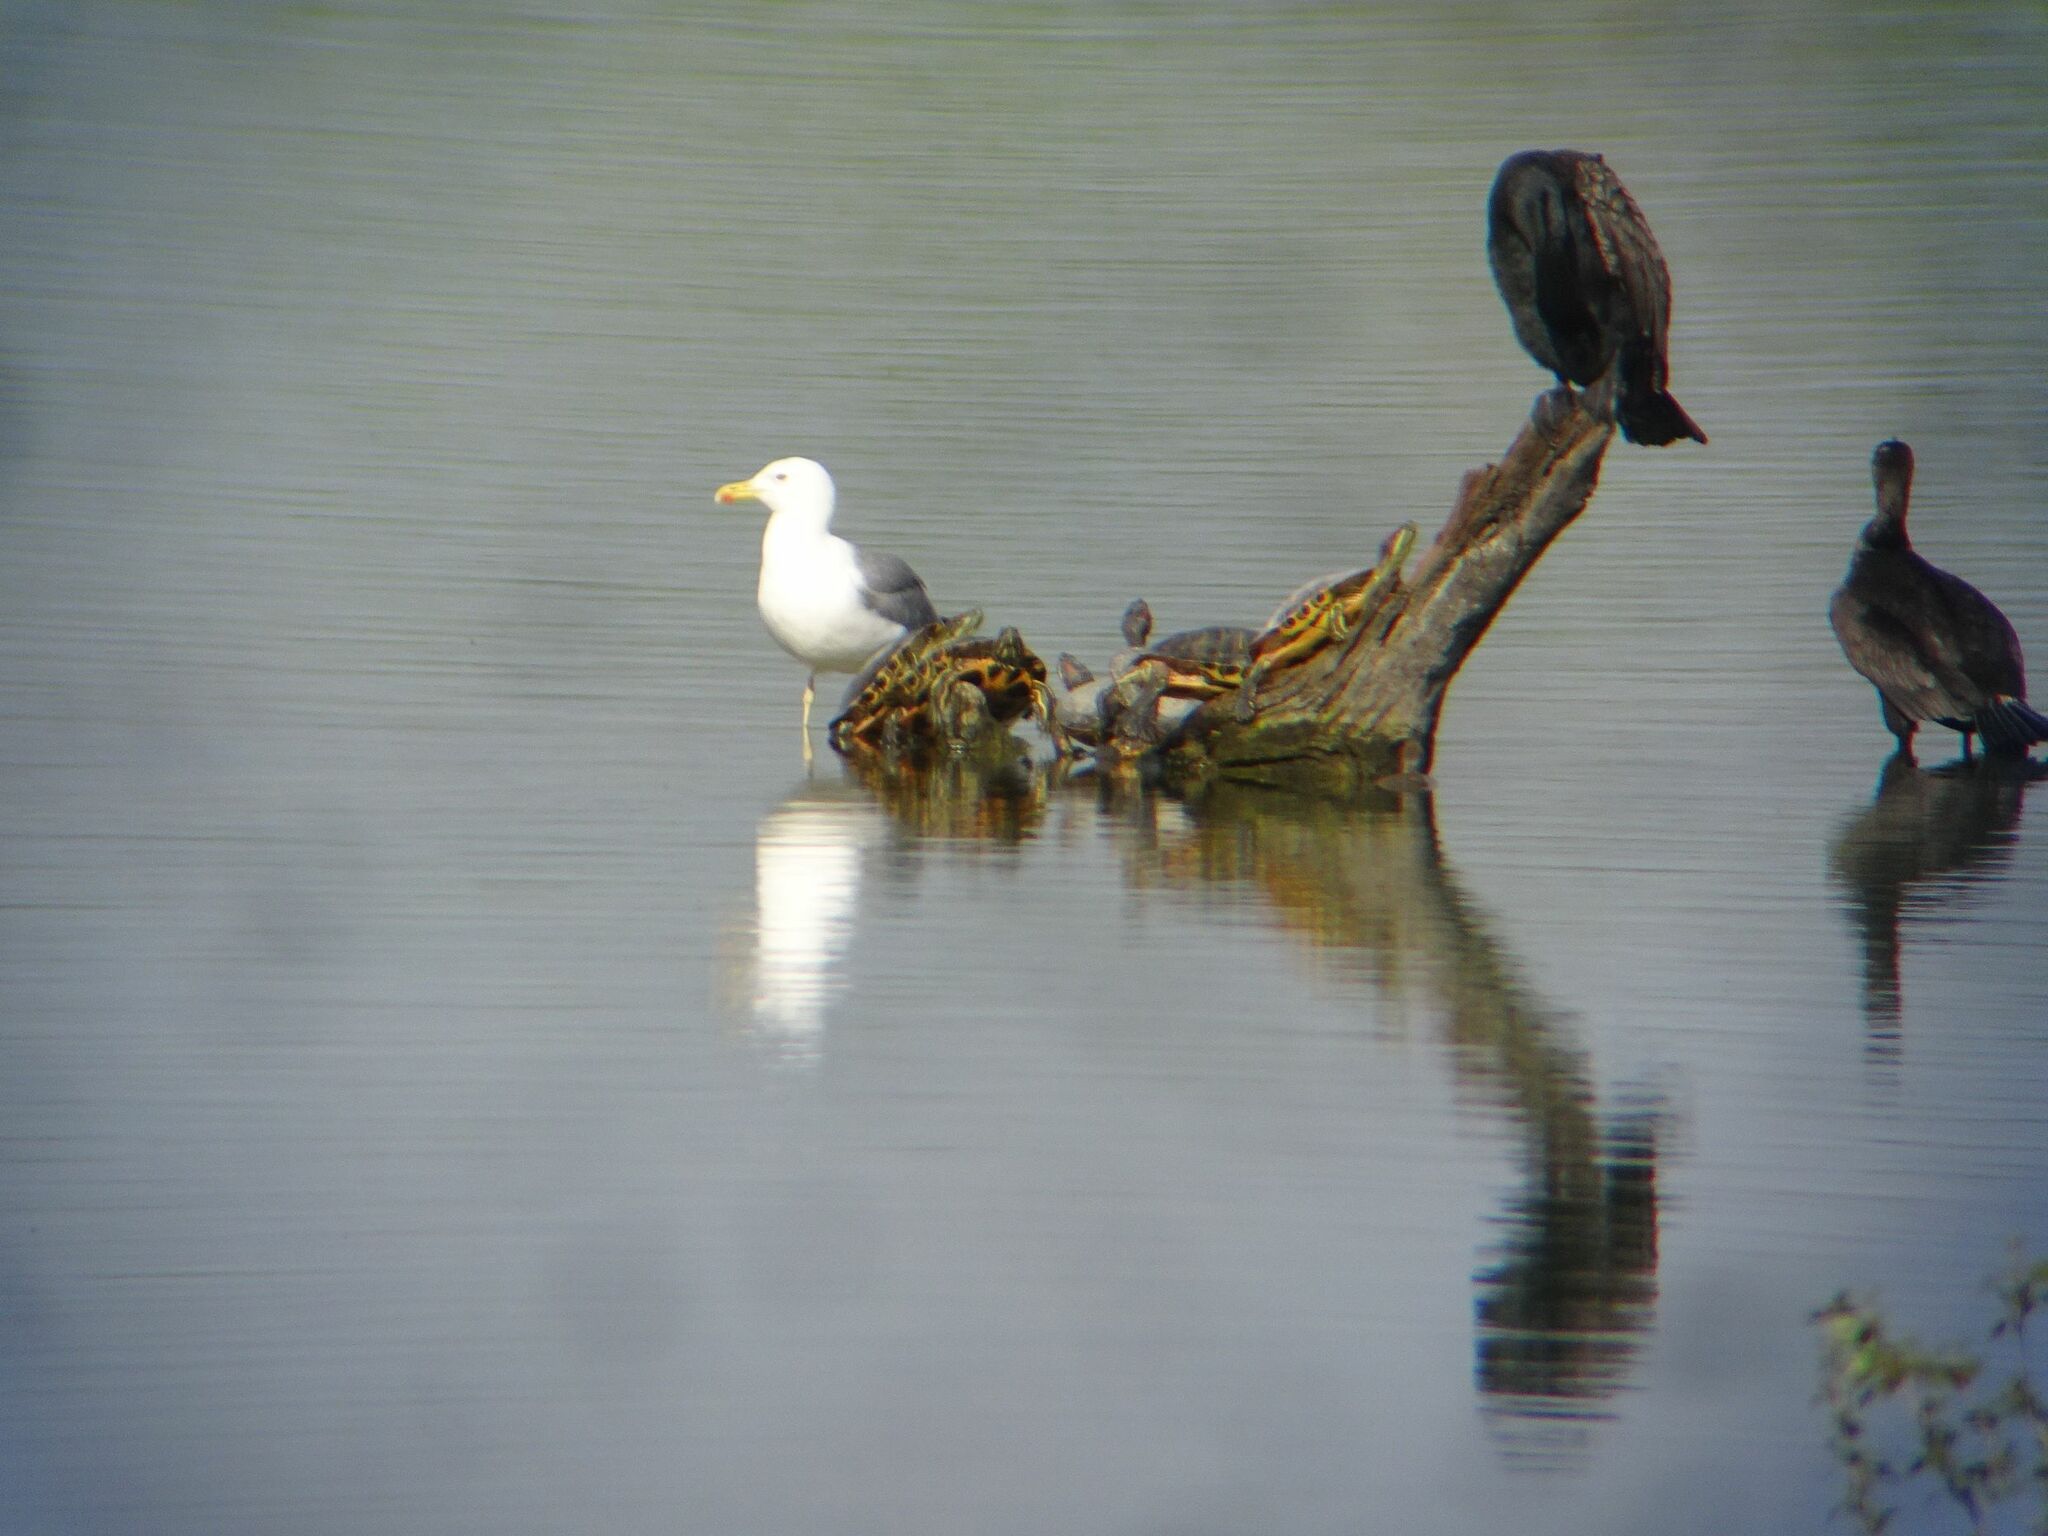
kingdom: Animalia
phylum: Chordata
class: Testudines
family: Emydidae
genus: Trachemys
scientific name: Trachemys scripta
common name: Slider
